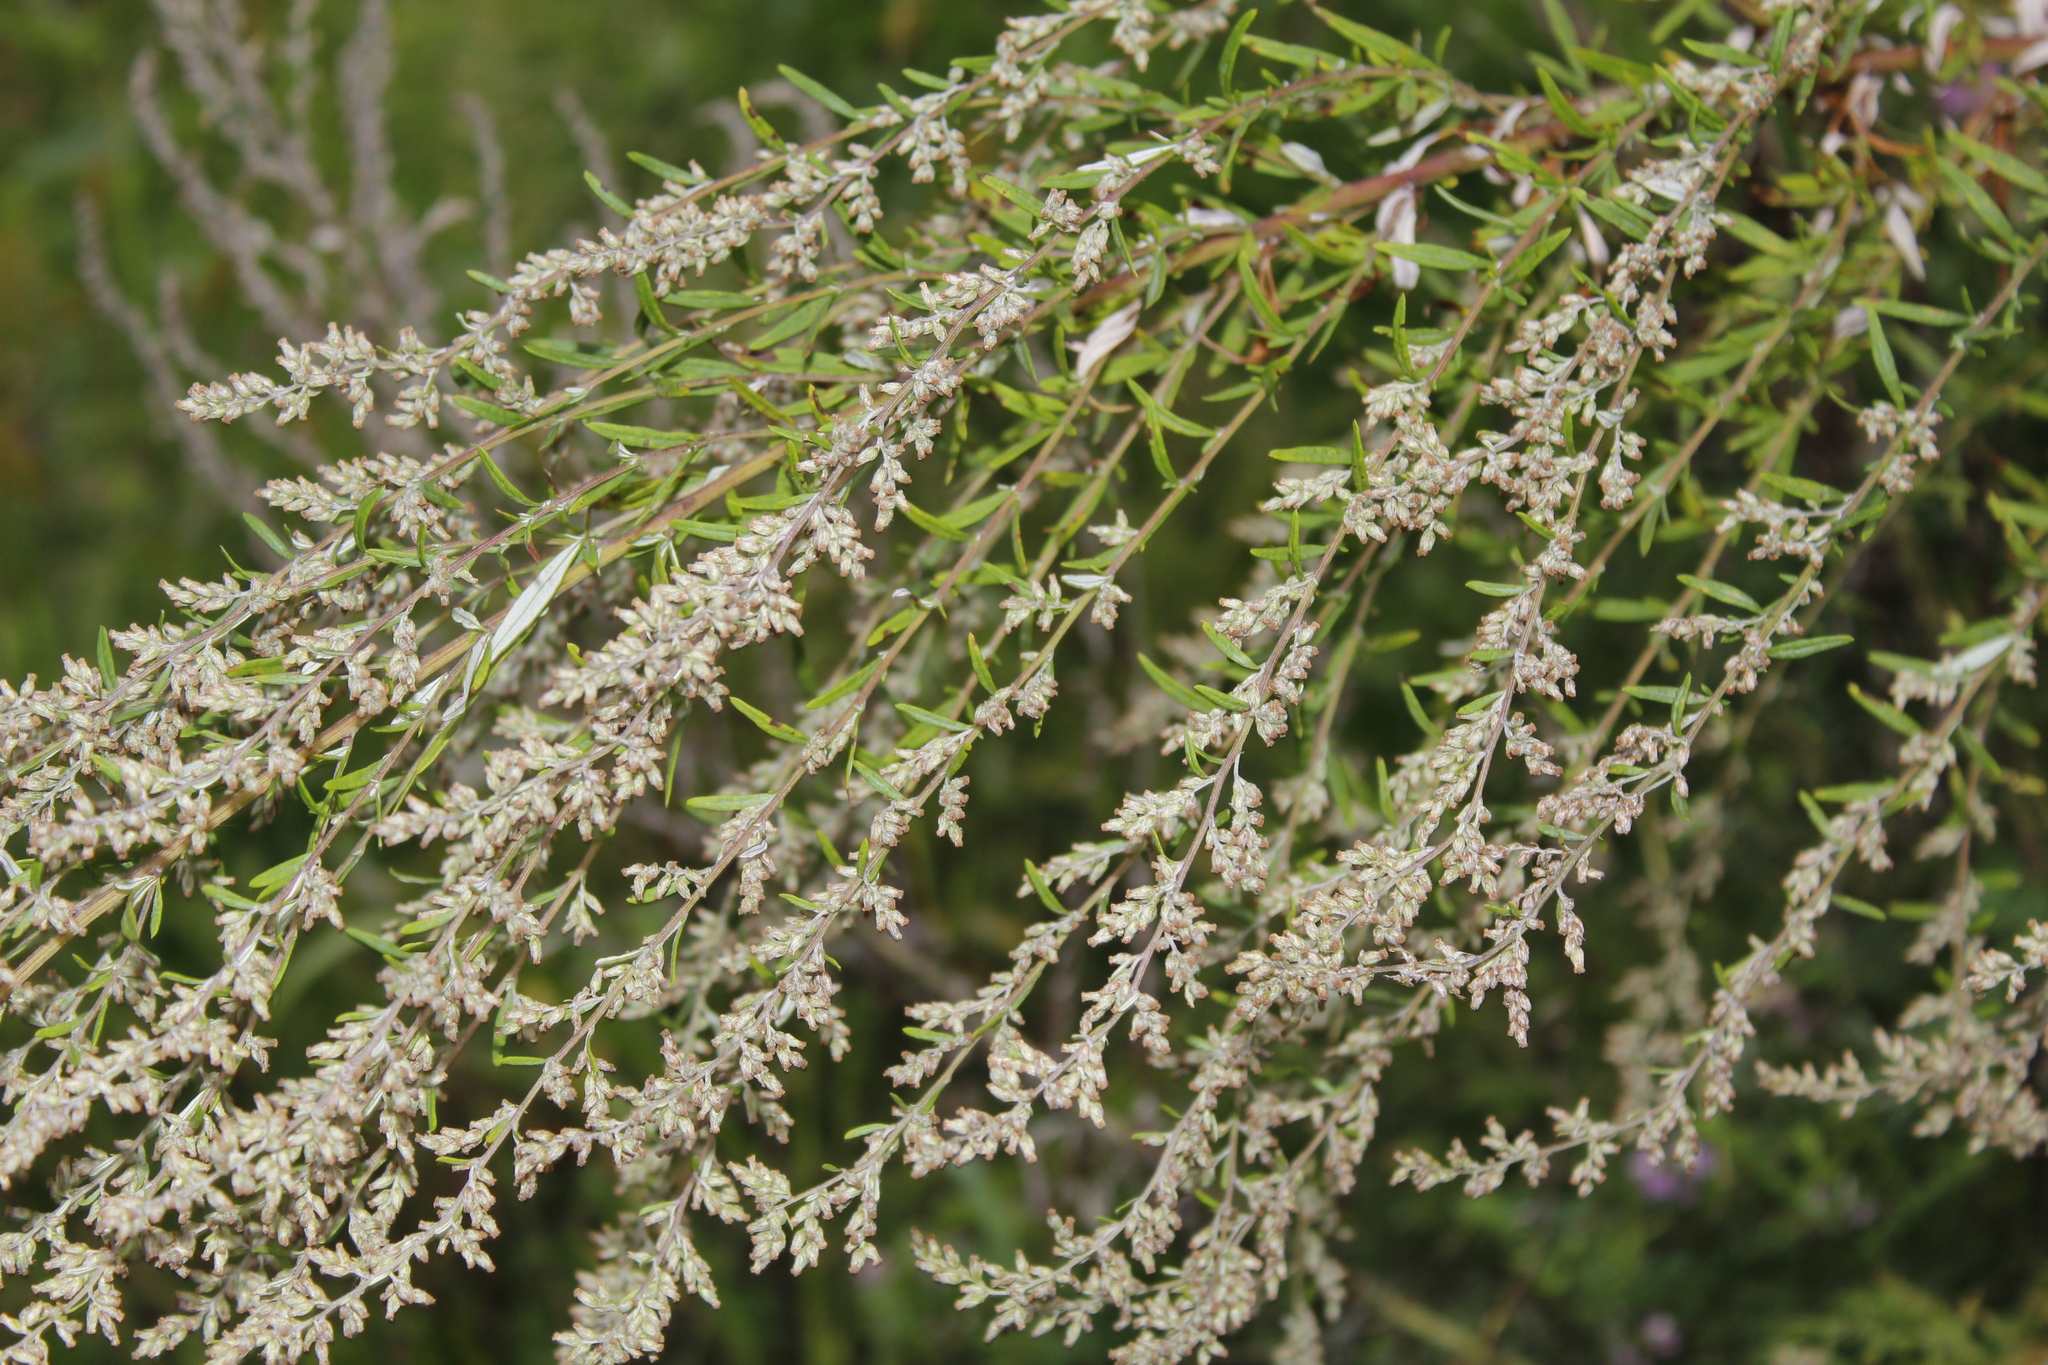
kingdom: Plantae
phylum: Tracheophyta
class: Magnoliopsida
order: Asterales
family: Asteraceae
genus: Ambrosia
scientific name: Ambrosia artemisiifolia
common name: Annual ragweed
